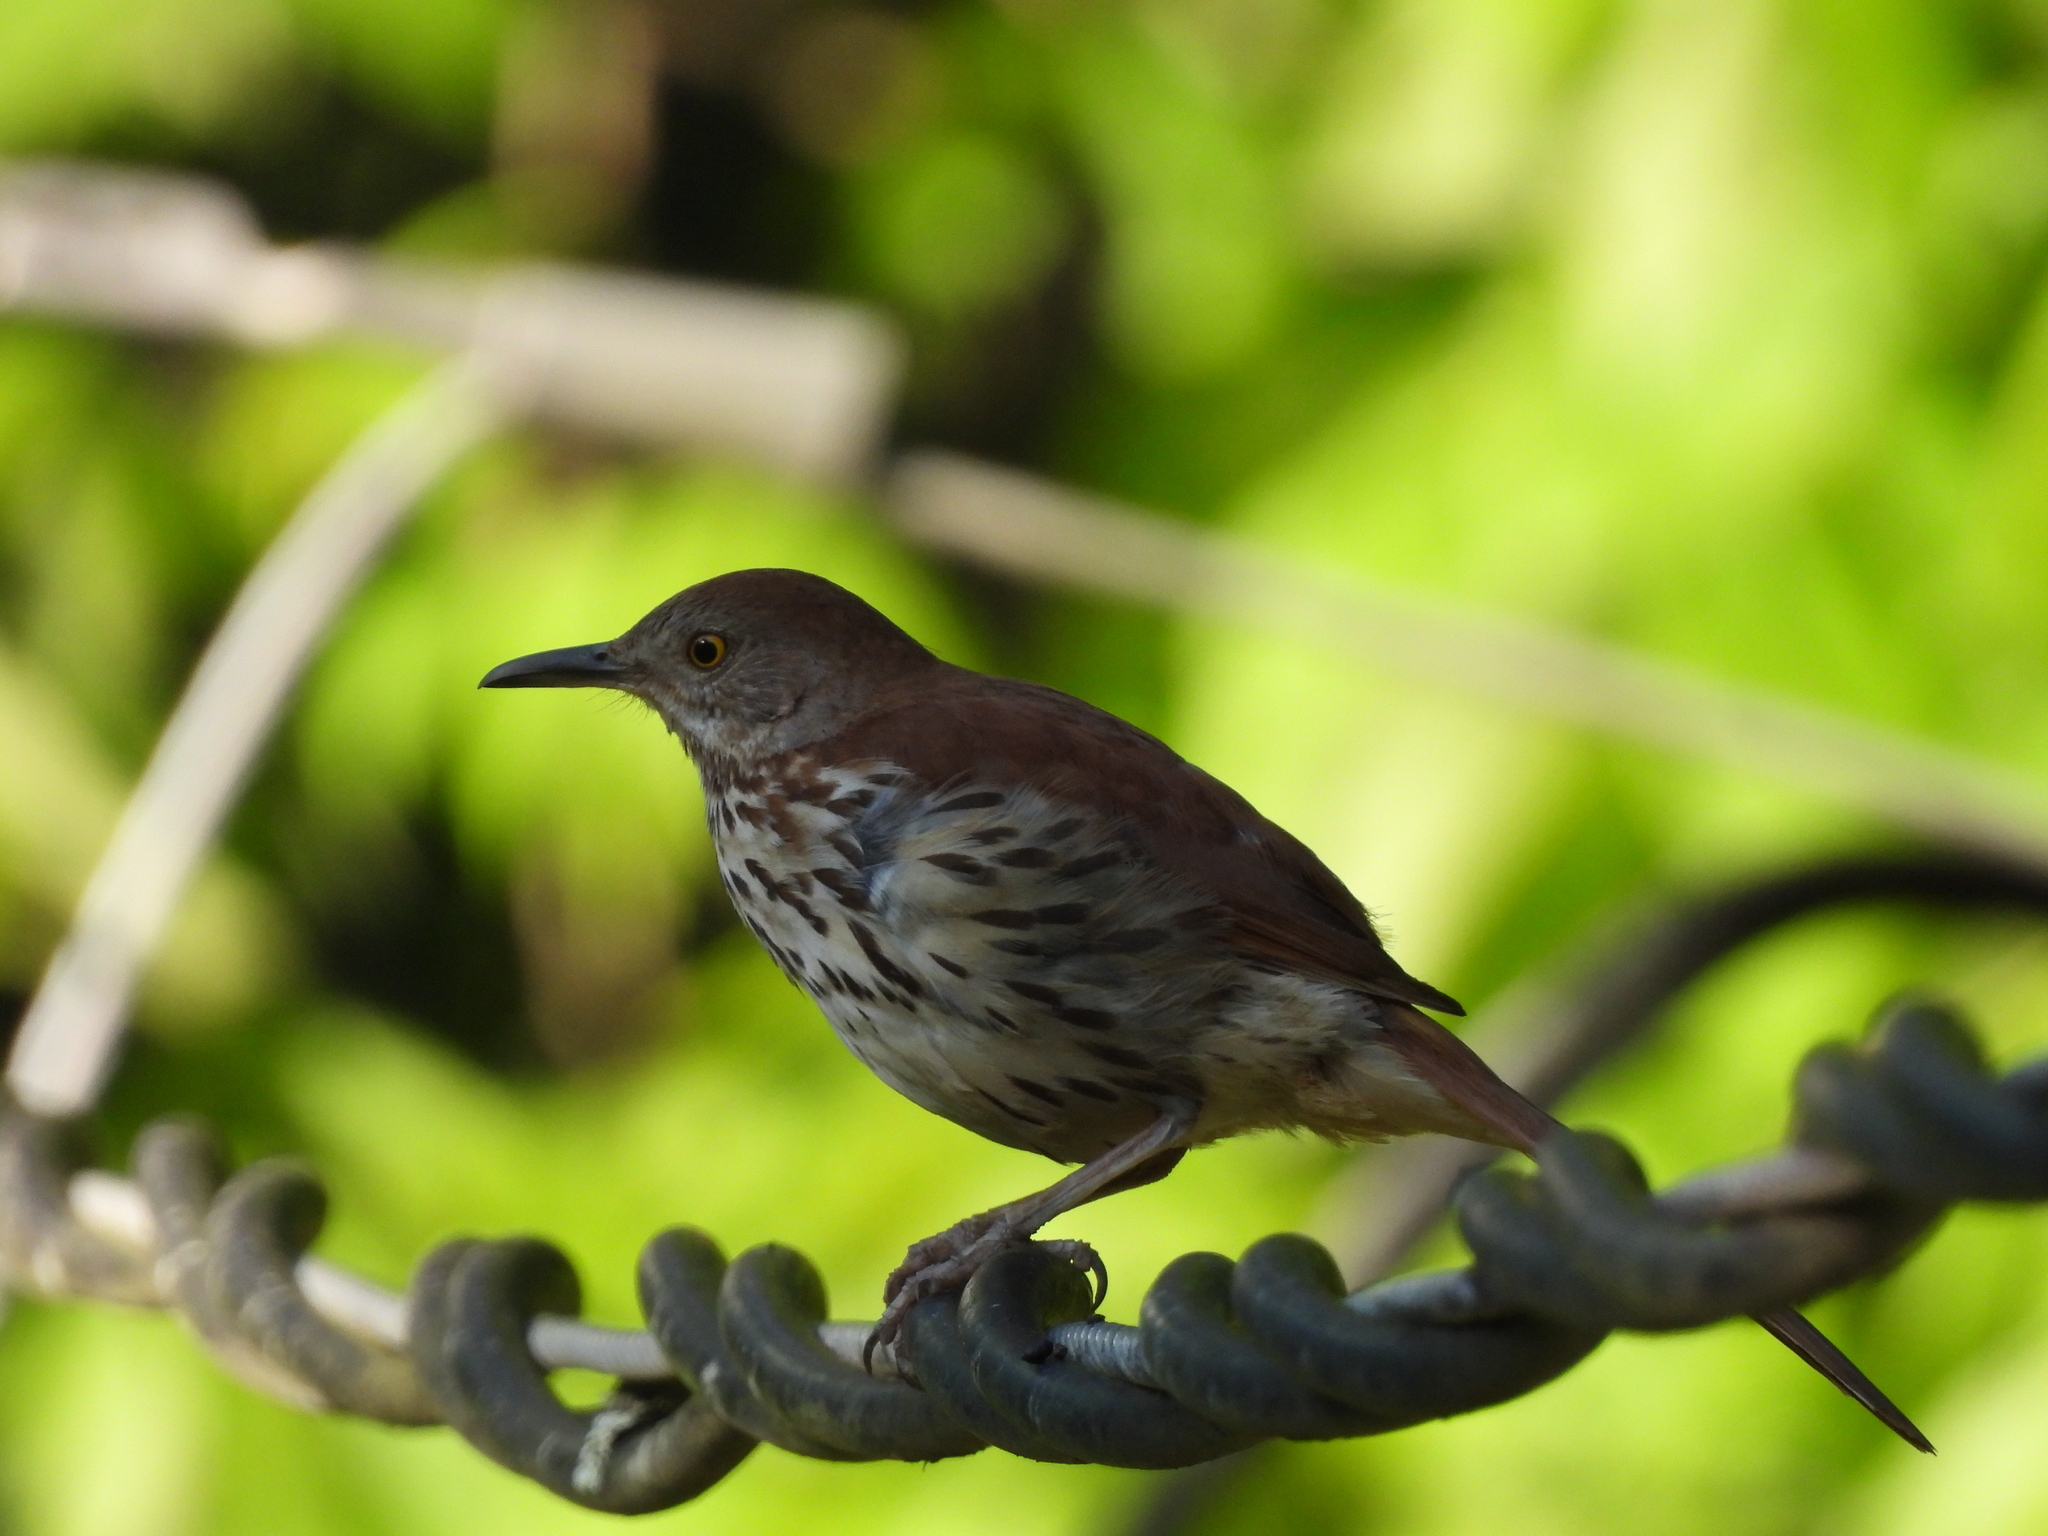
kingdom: Animalia
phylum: Chordata
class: Aves
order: Passeriformes
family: Mimidae
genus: Toxostoma
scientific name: Toxostoma rufum
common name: Brown thrasher
